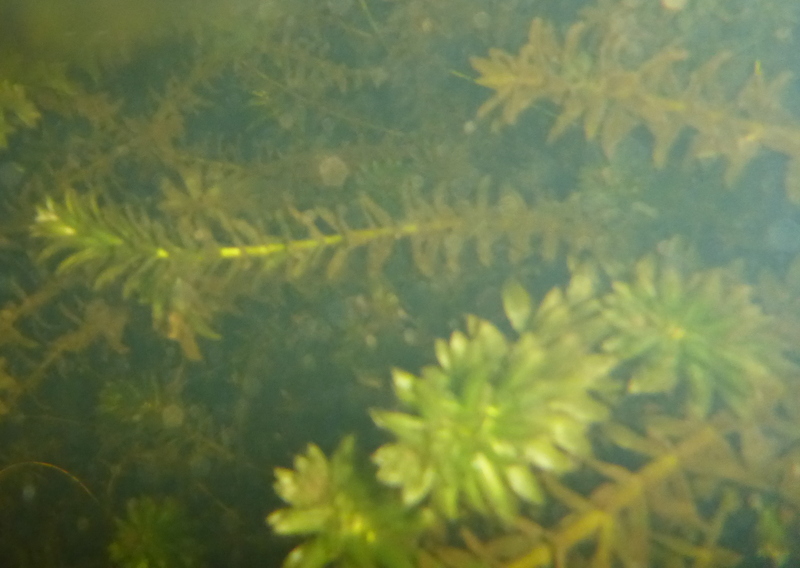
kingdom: Plantae
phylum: Tracheophyta
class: Liliopsida
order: Alismatales
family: Hydrocharitaceae
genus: Hydrilla
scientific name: Hydrilla verticillata
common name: Florida-elodea
